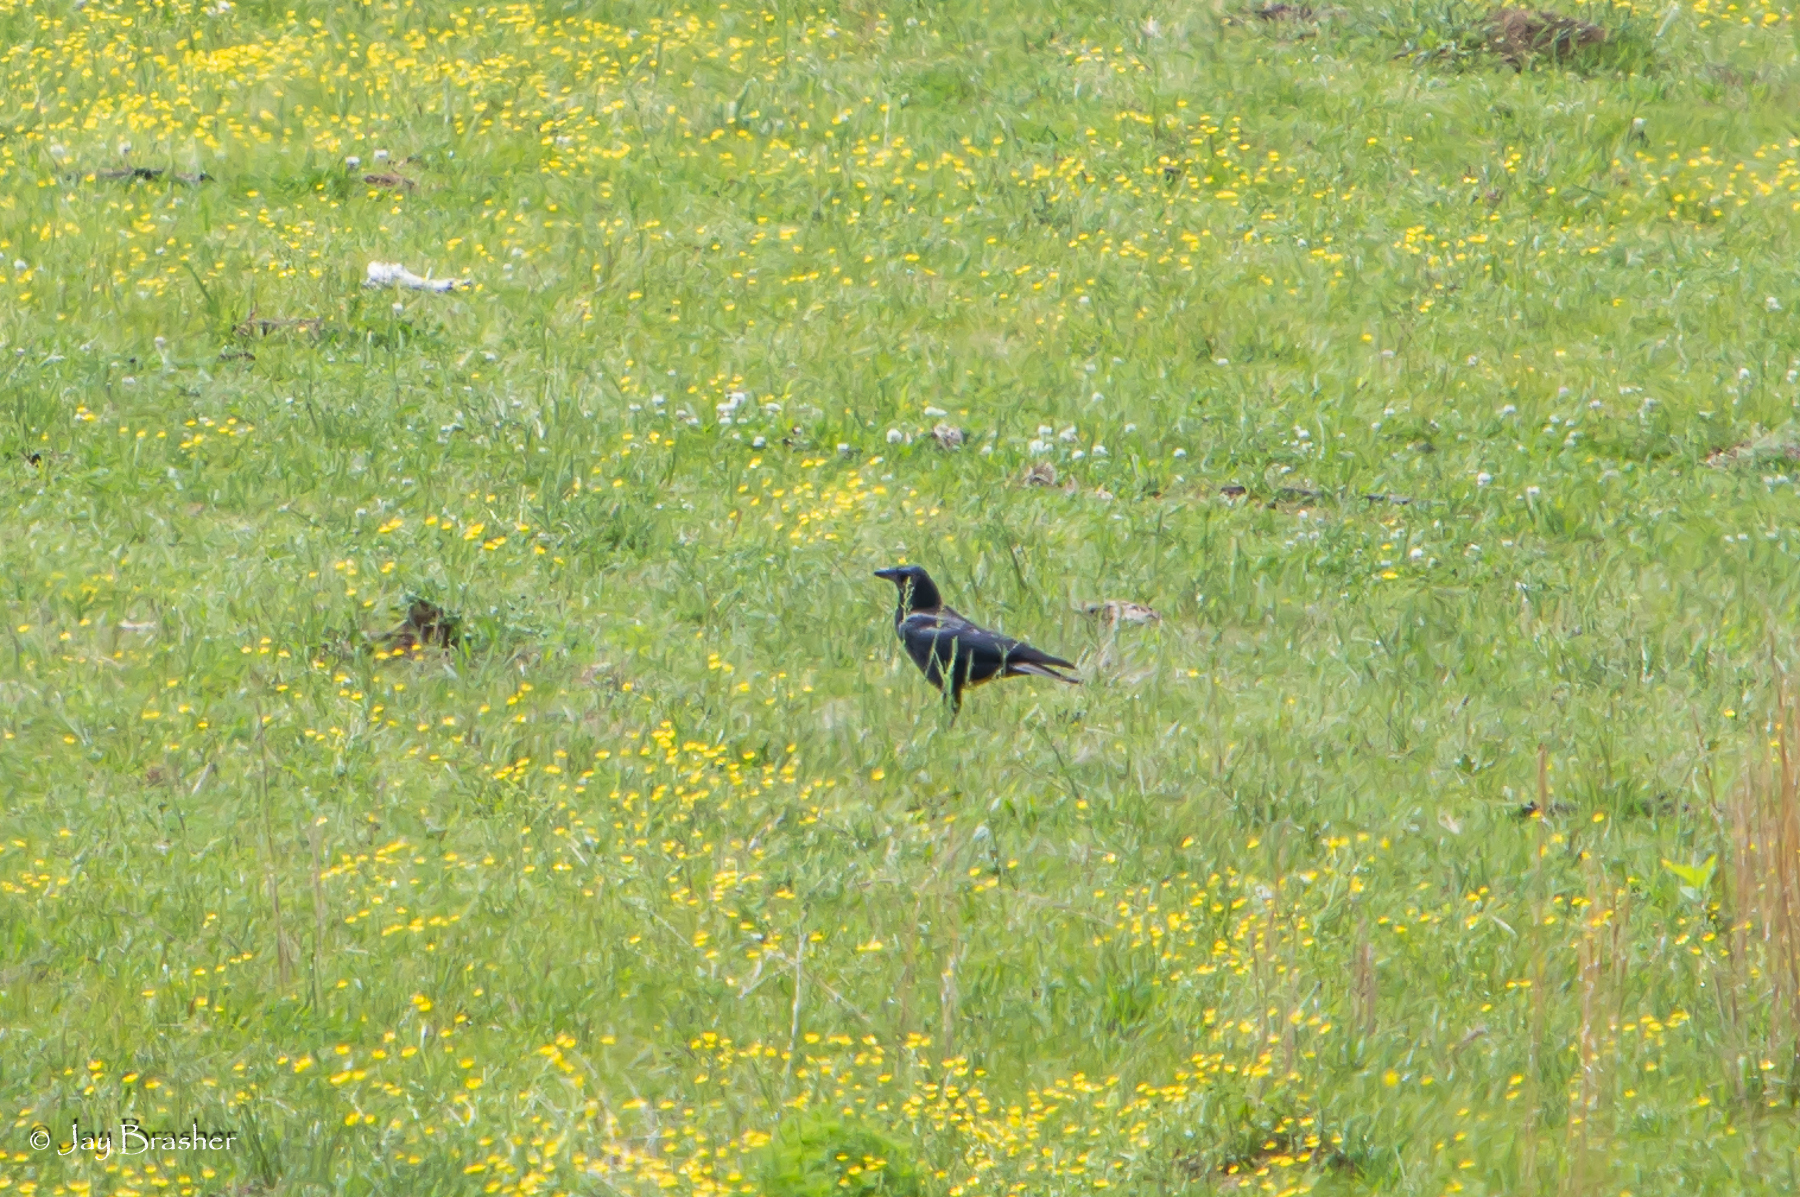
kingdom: Animalia
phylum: Chordata
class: Aves
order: Passeriformes
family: Corvidae
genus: Corvus
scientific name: Corvus brachyrhynchos
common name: American crow
